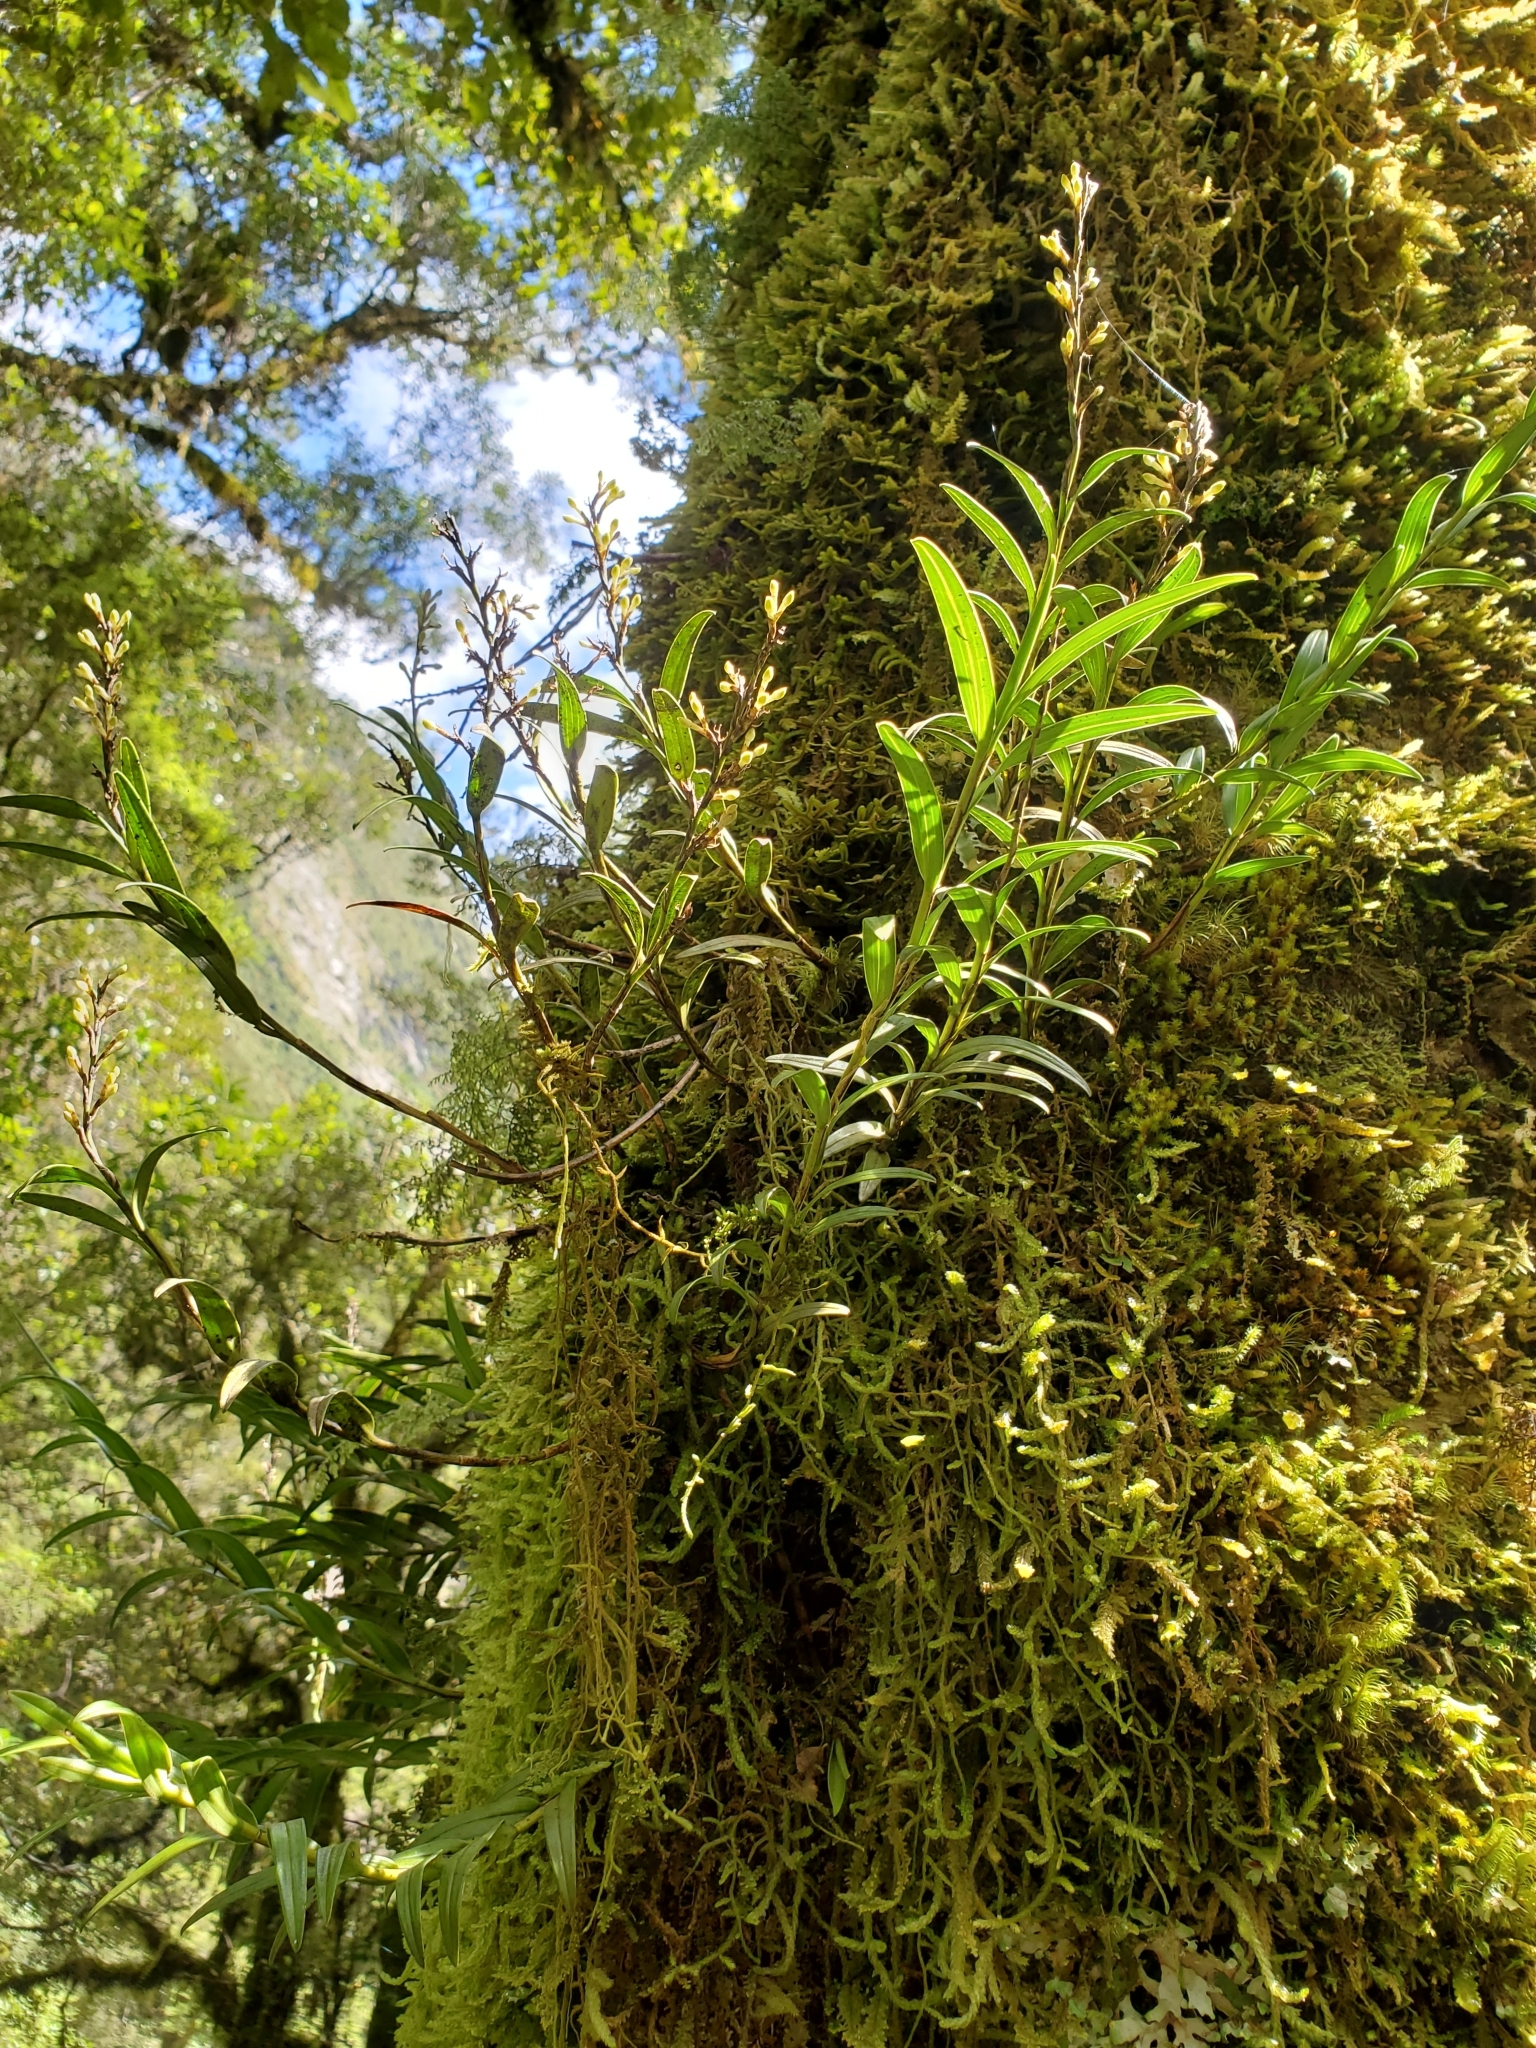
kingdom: Plantae
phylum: Tracheophyta
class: Liliopsida
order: Asparagales
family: Orchidaceae
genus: Earina
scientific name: Earina autumnalis
